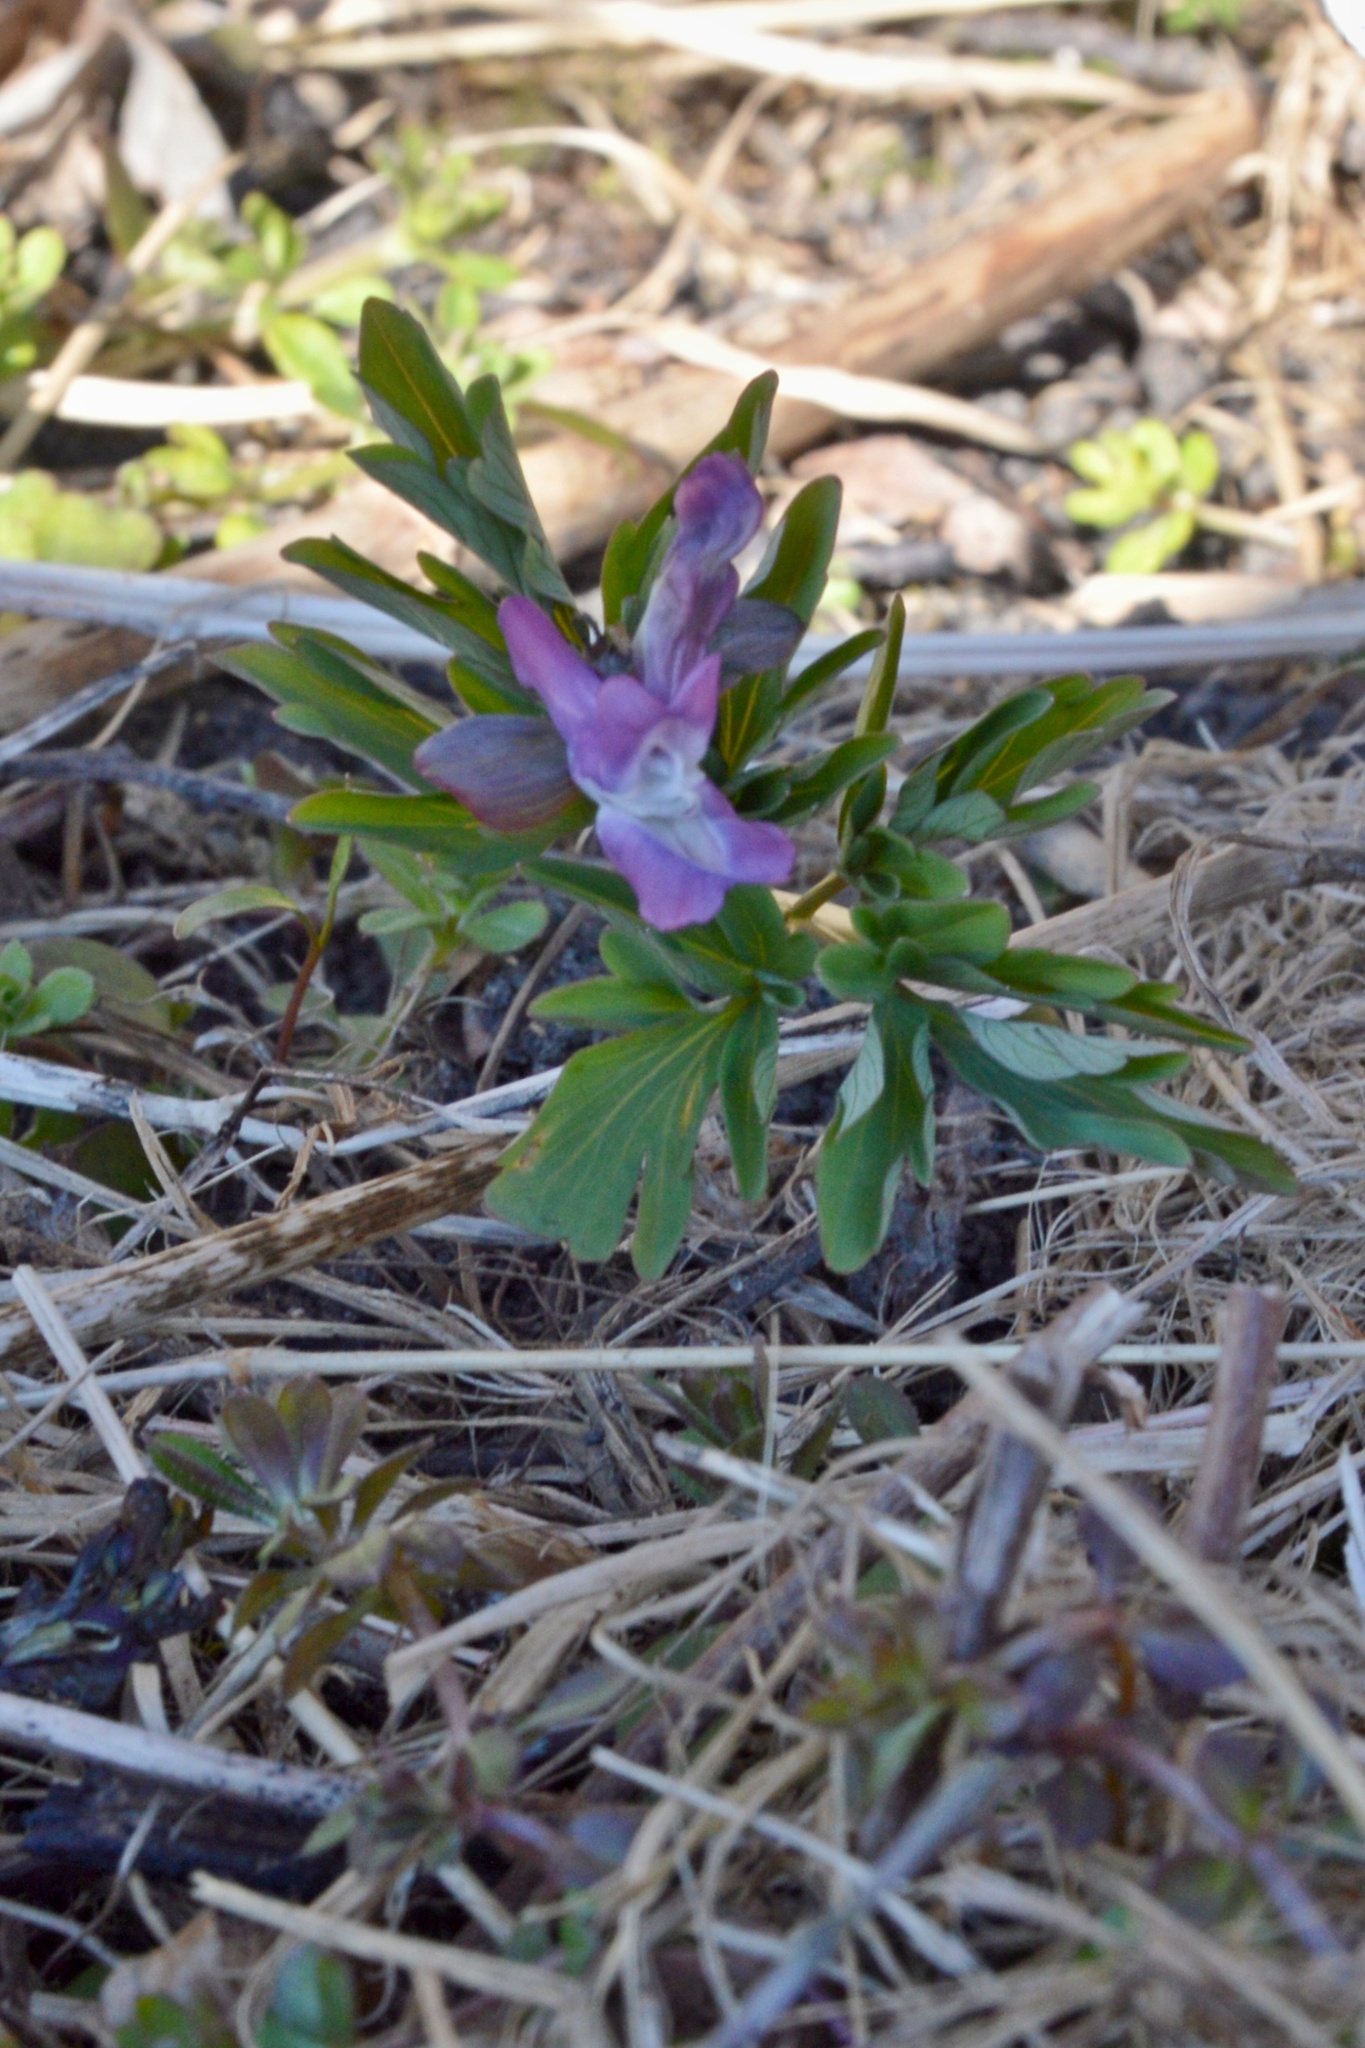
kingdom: Plantae
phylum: Tracheophyta
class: Magnoliopsida
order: Ranunculales
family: Papaveraceae
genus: Corydalis
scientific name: Corydalis cava
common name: Hollowroot
